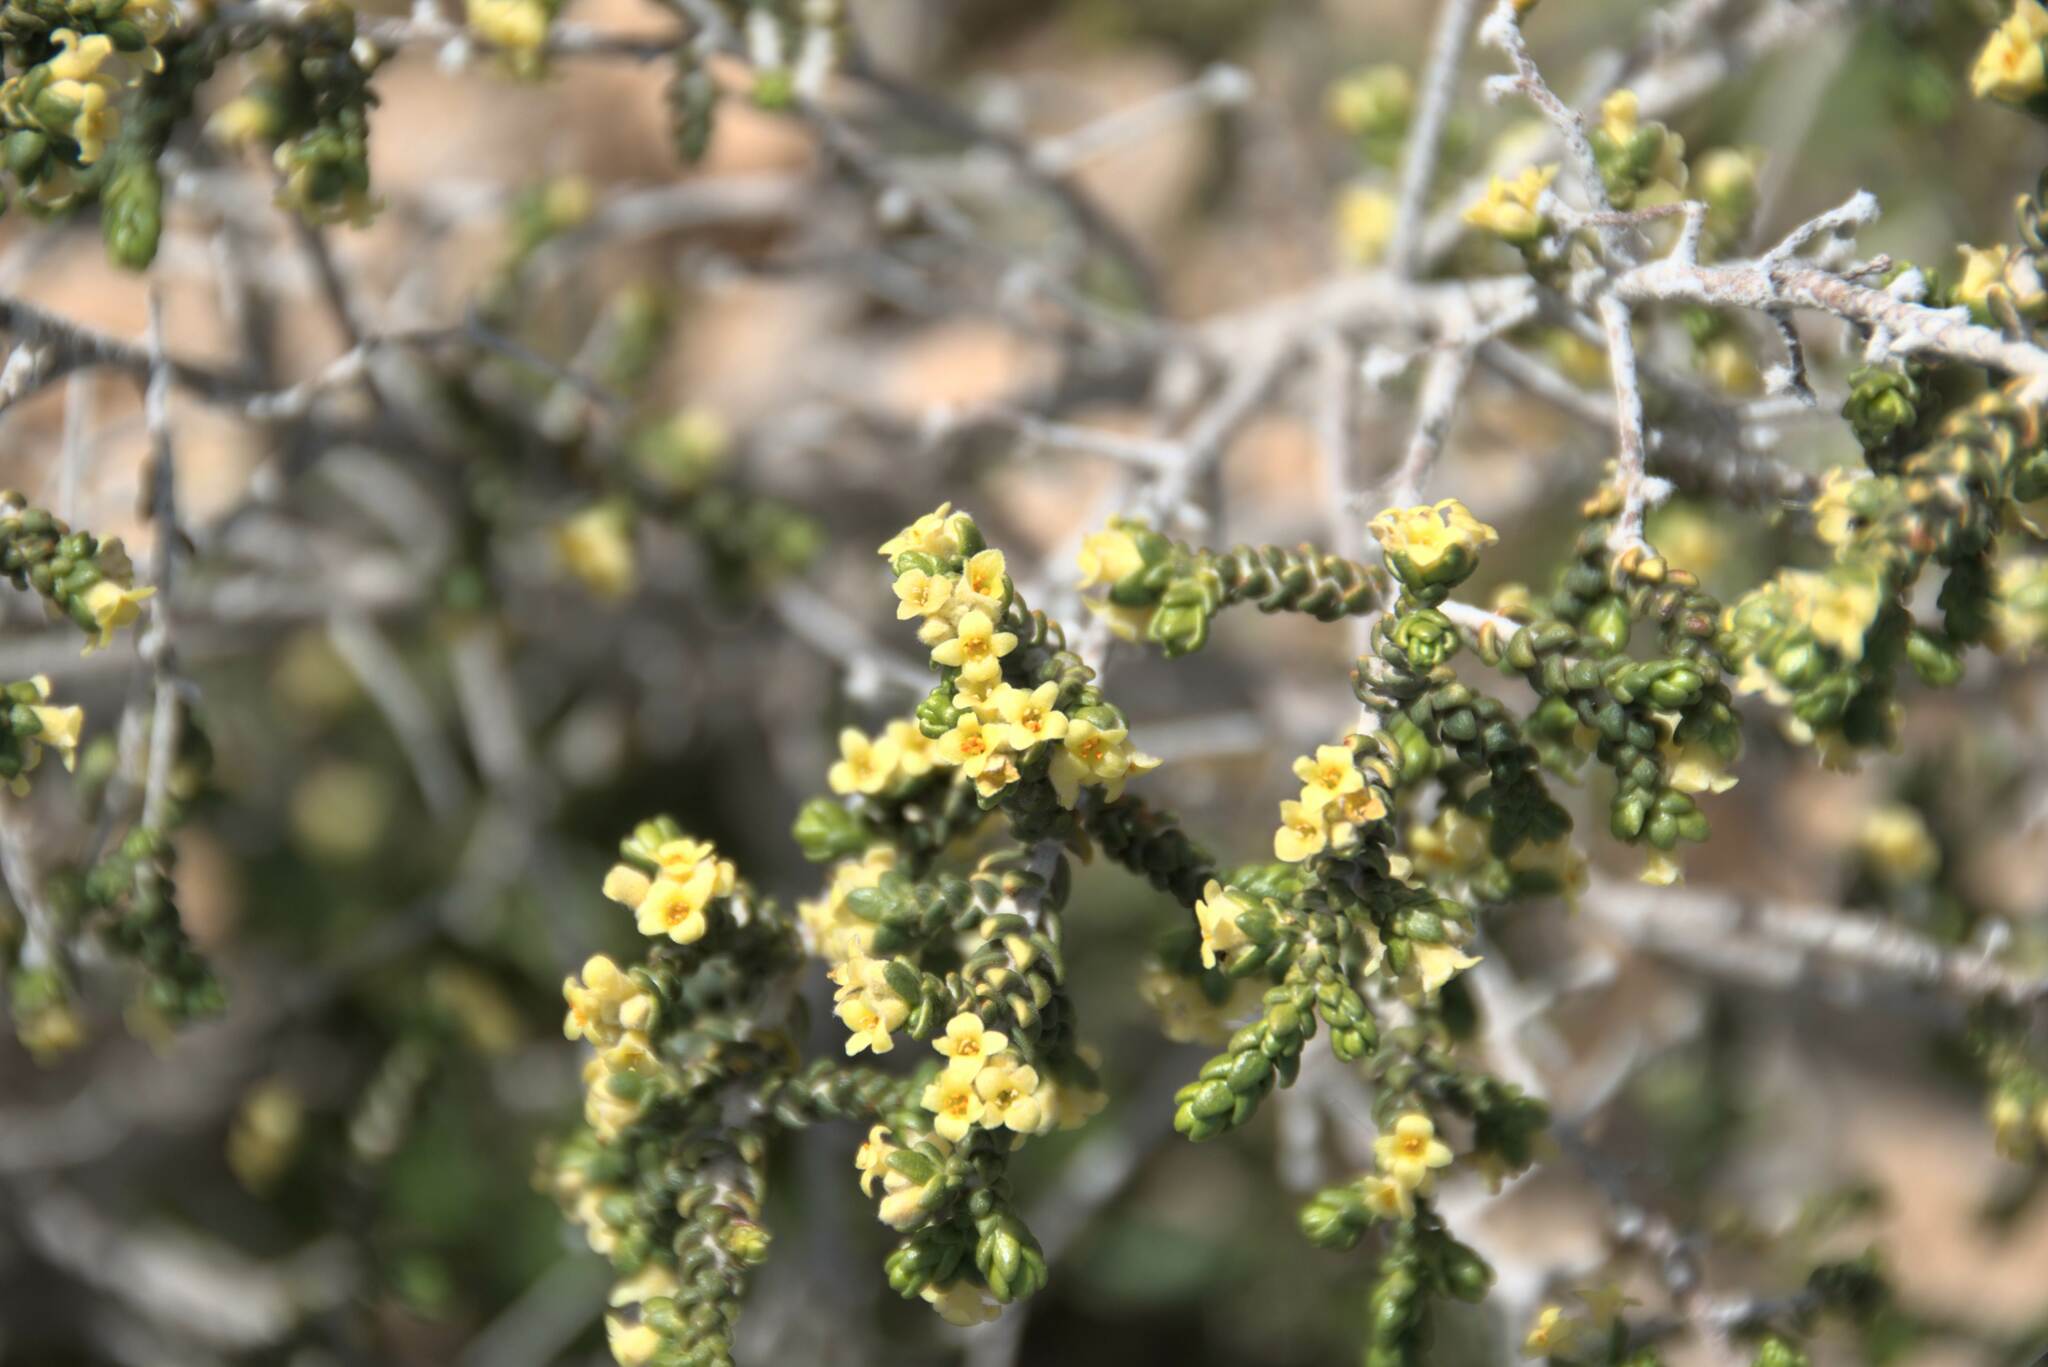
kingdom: Plantae
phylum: Tracheophyta
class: Magnoliopsida
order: Malvales
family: Thymelaeaceae
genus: Thymelaea
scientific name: Thymelaea hirsuta
